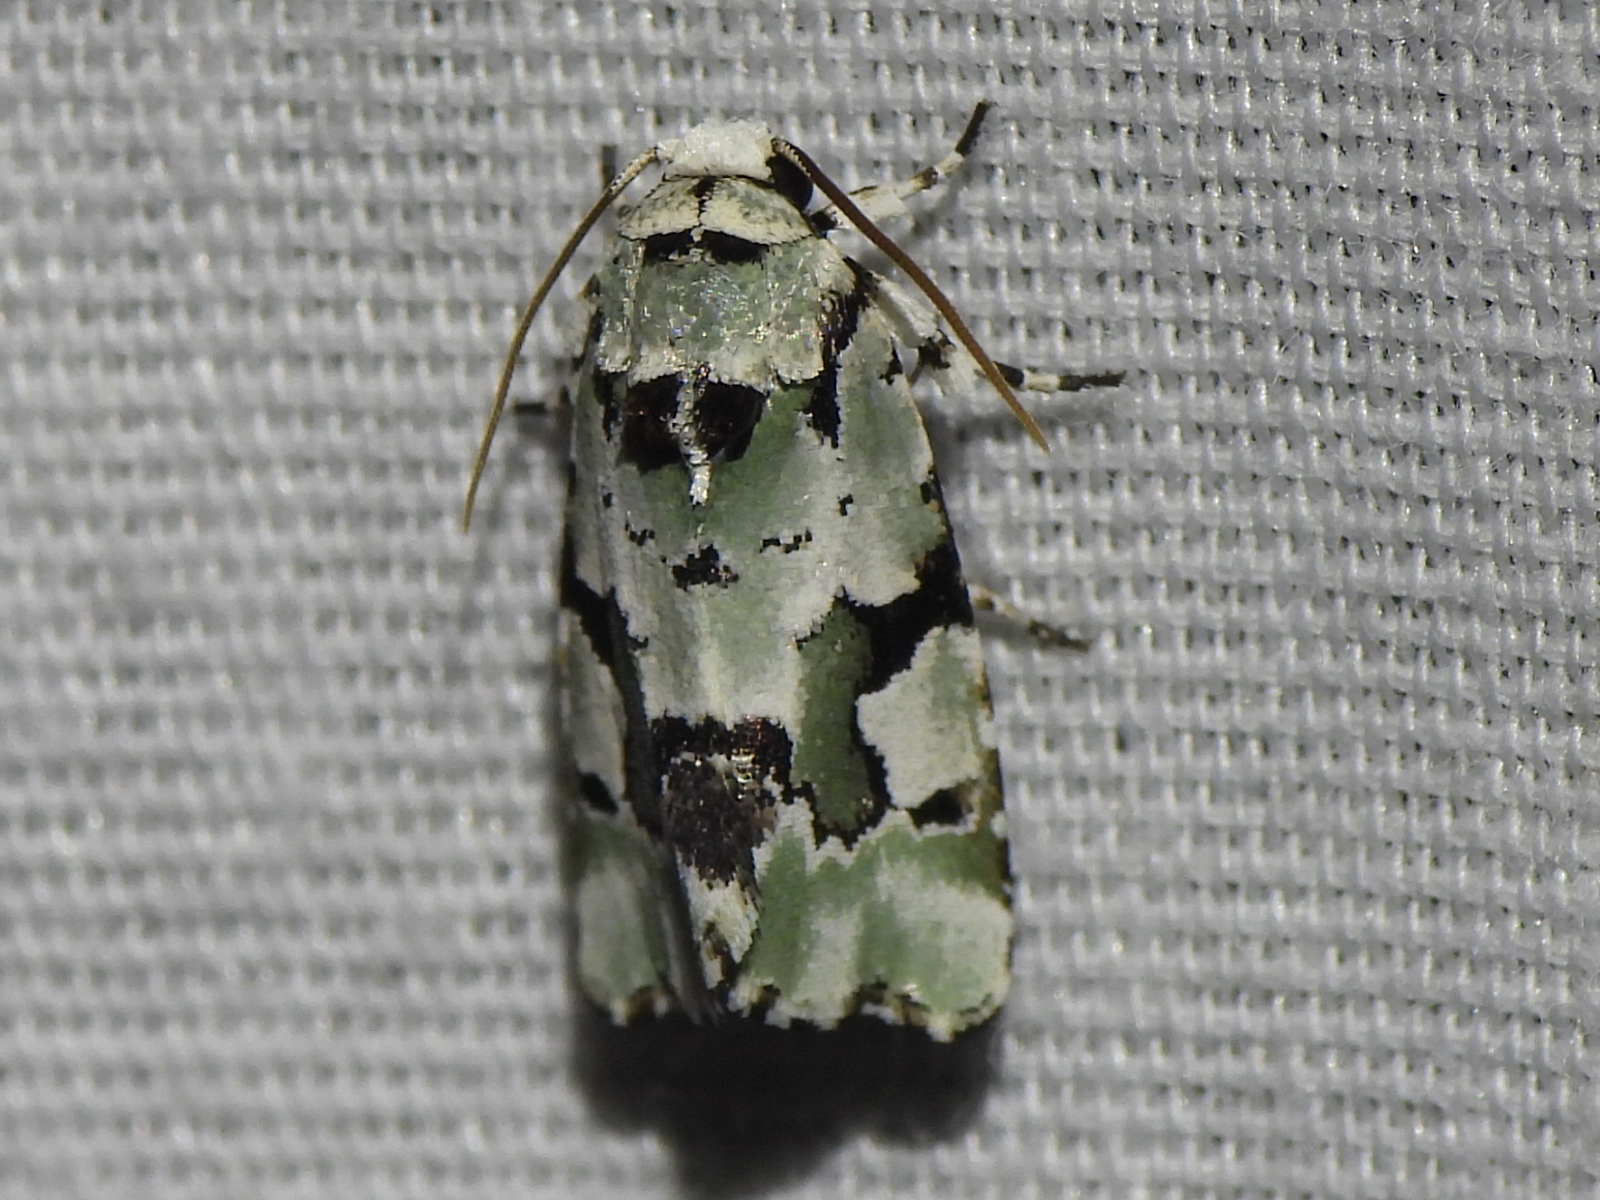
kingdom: Animalia
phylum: Arthropoda
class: Insecta
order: Lepidoptera
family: Noctuidae
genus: Emarginea
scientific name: Emarginea percara
